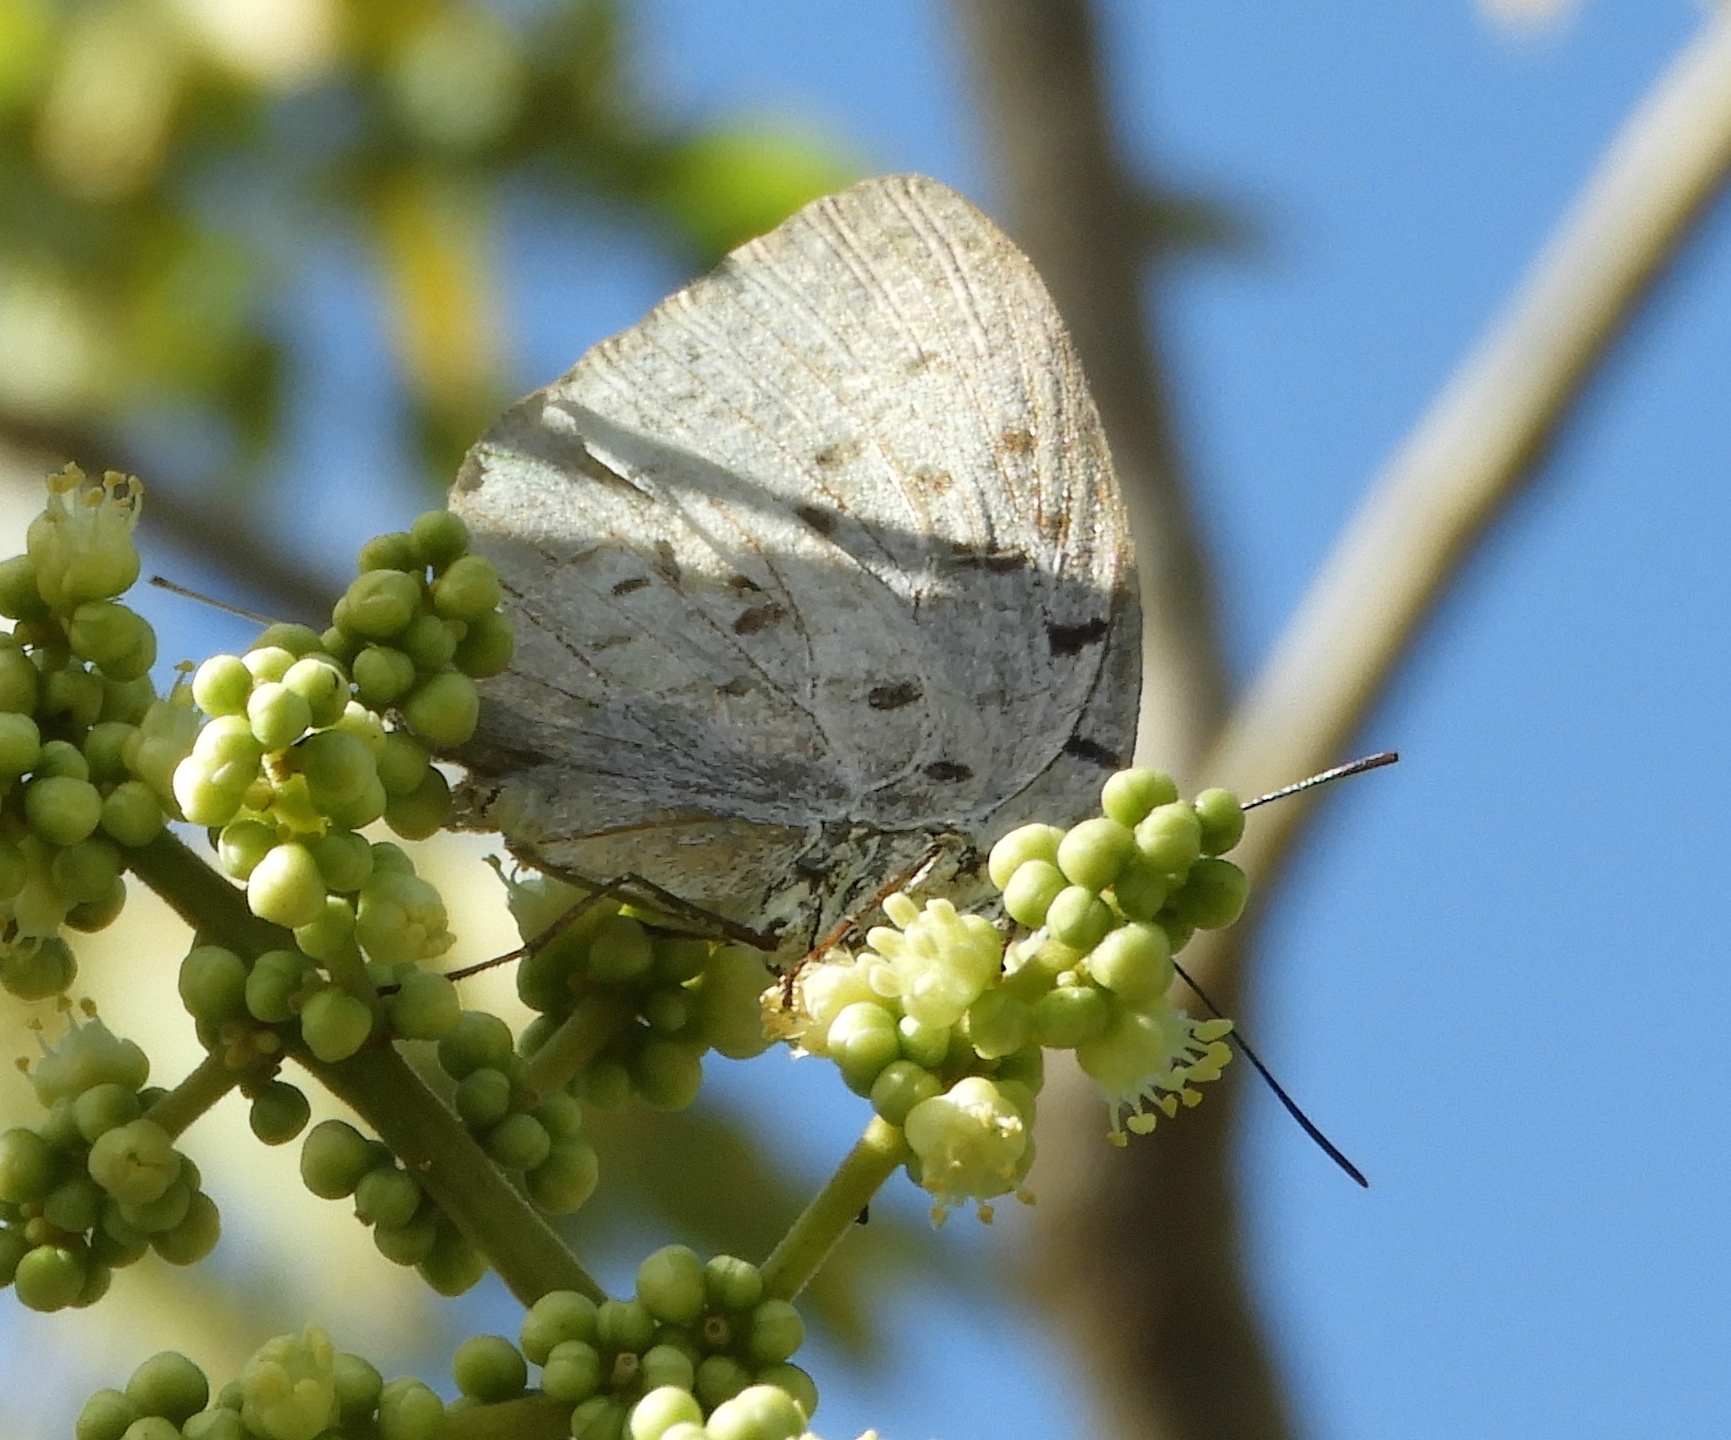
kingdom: Animalia
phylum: Arthropoda
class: Insecta
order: Lepidoptera
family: Lycaenidae
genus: Pseudolycaena
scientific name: Pseudolycaena damo
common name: Sky-blue hairstreak
